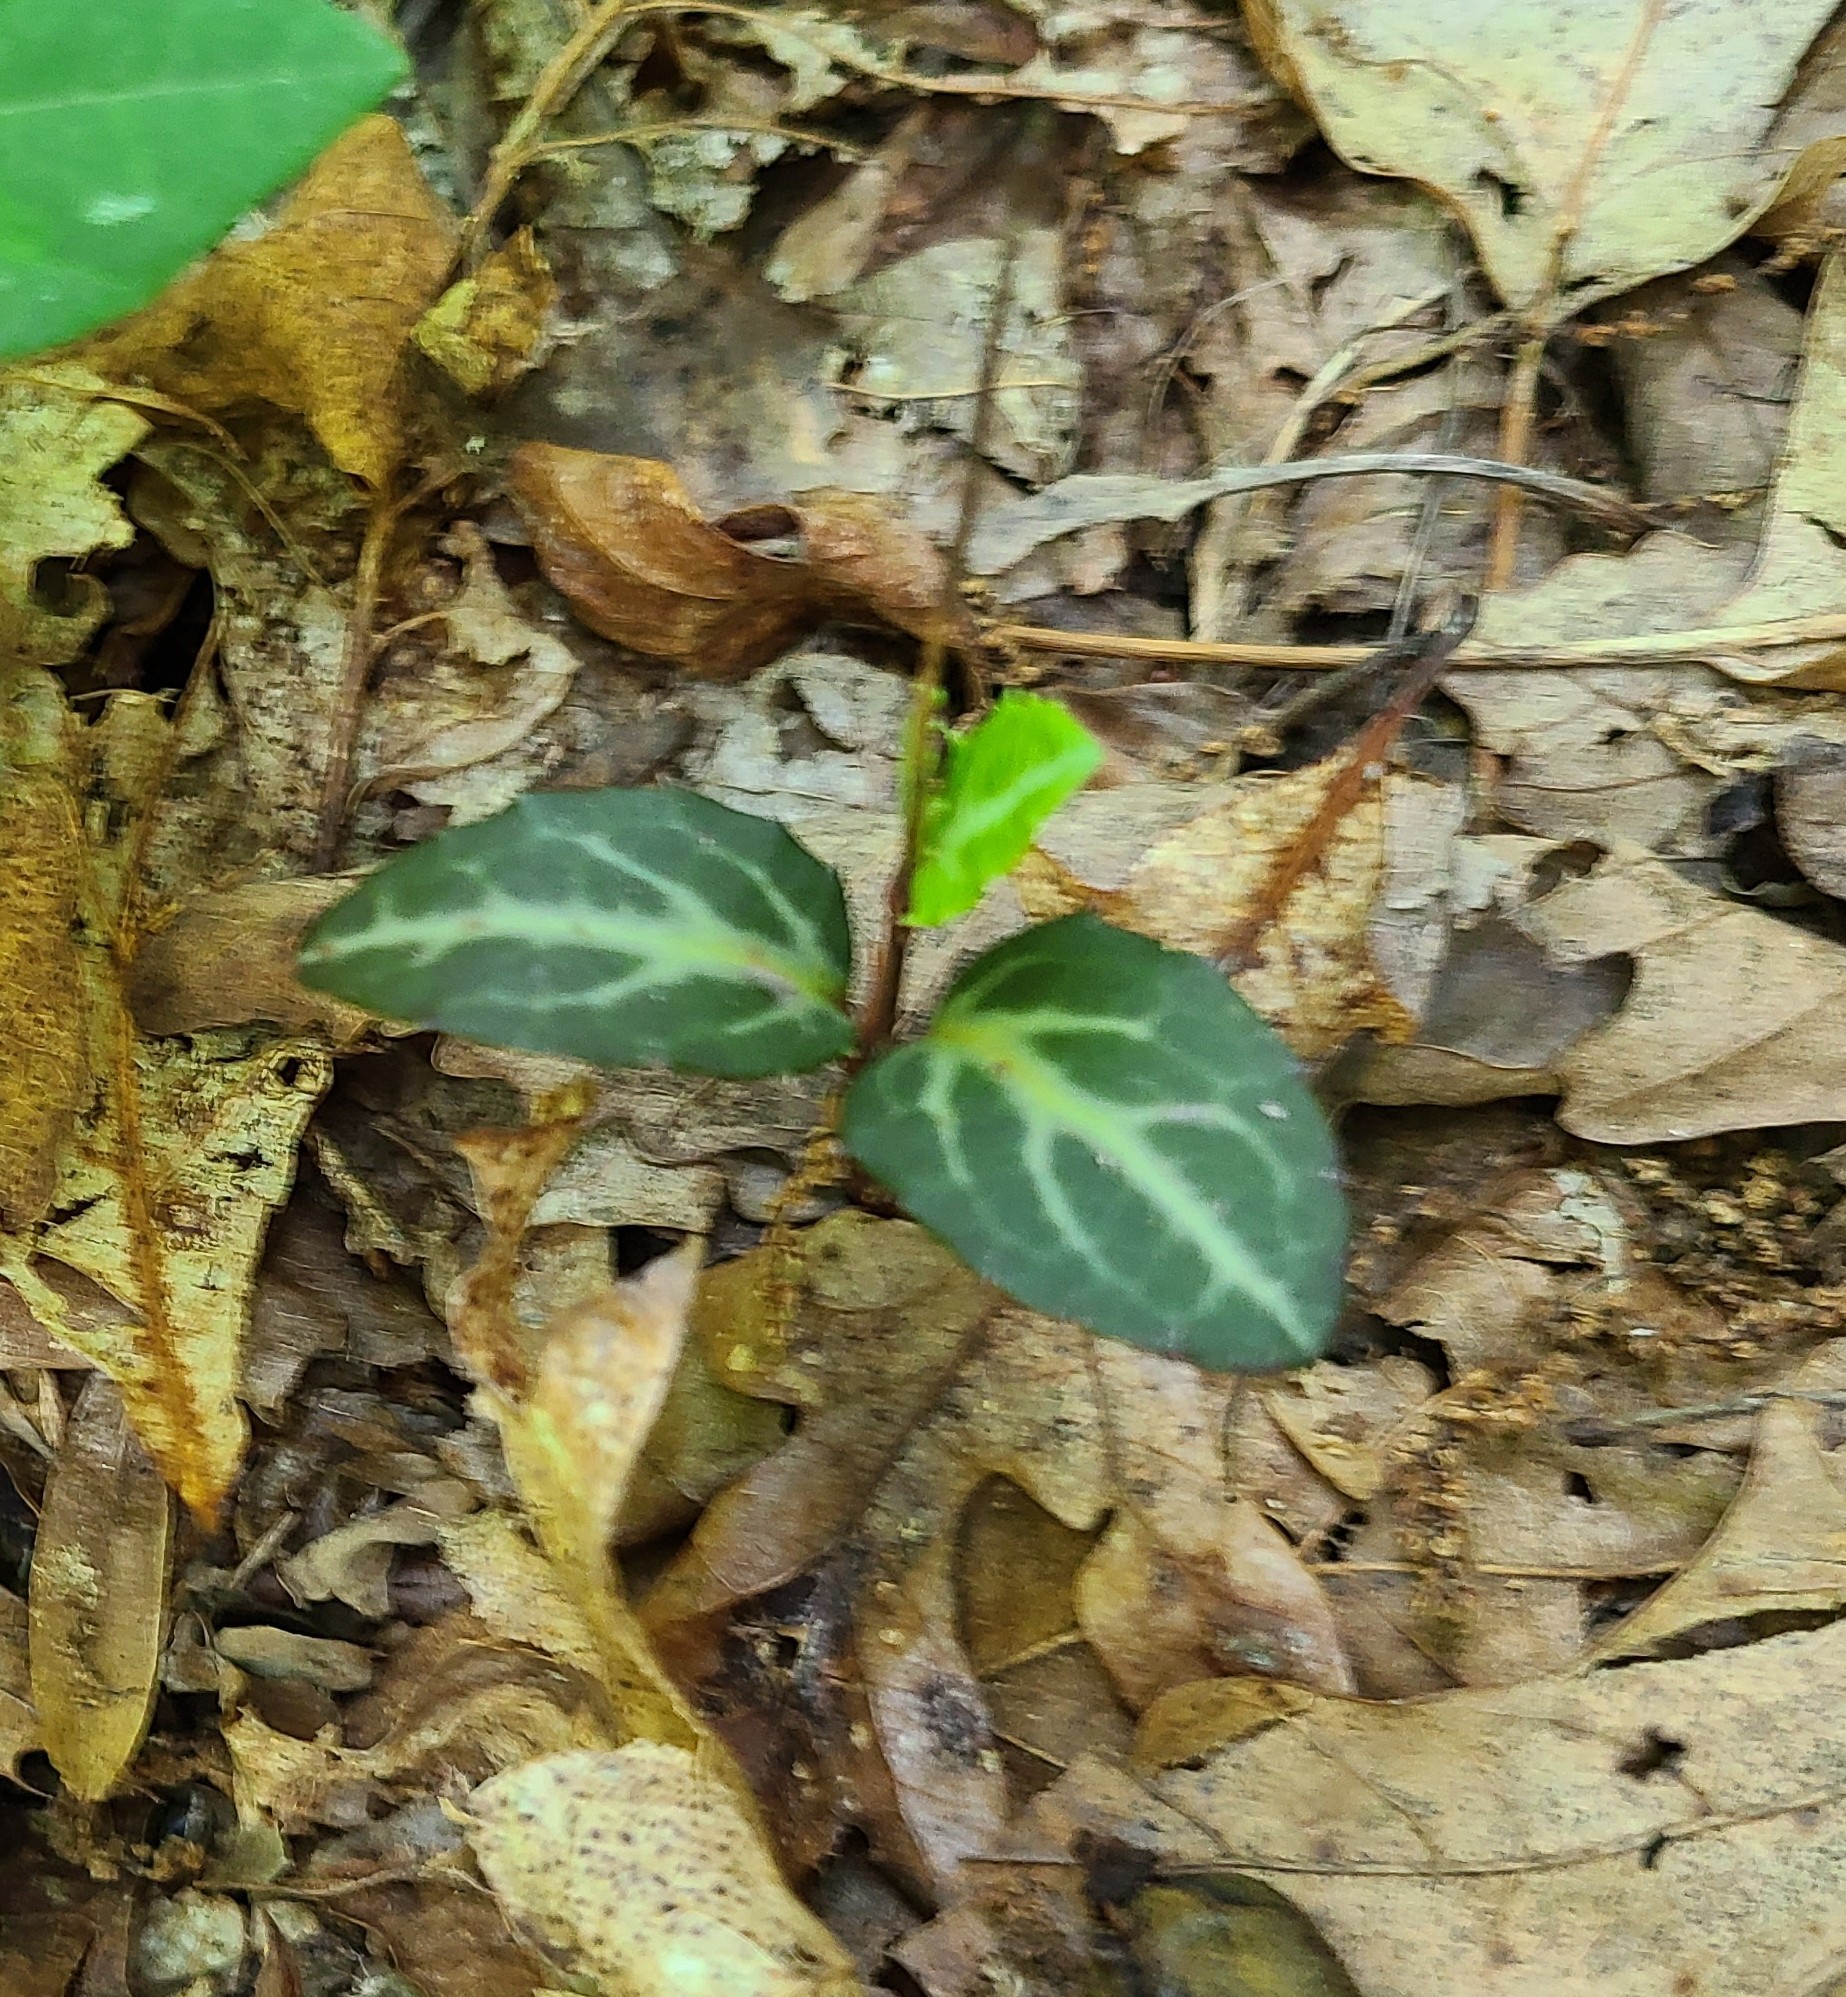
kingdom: Plantae
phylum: Tracheophyta
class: Magnoliopsida
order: Ericales
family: Ericaceae
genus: Chimaphila
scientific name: Chimaphila maculata
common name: Spotted pipsissewa
